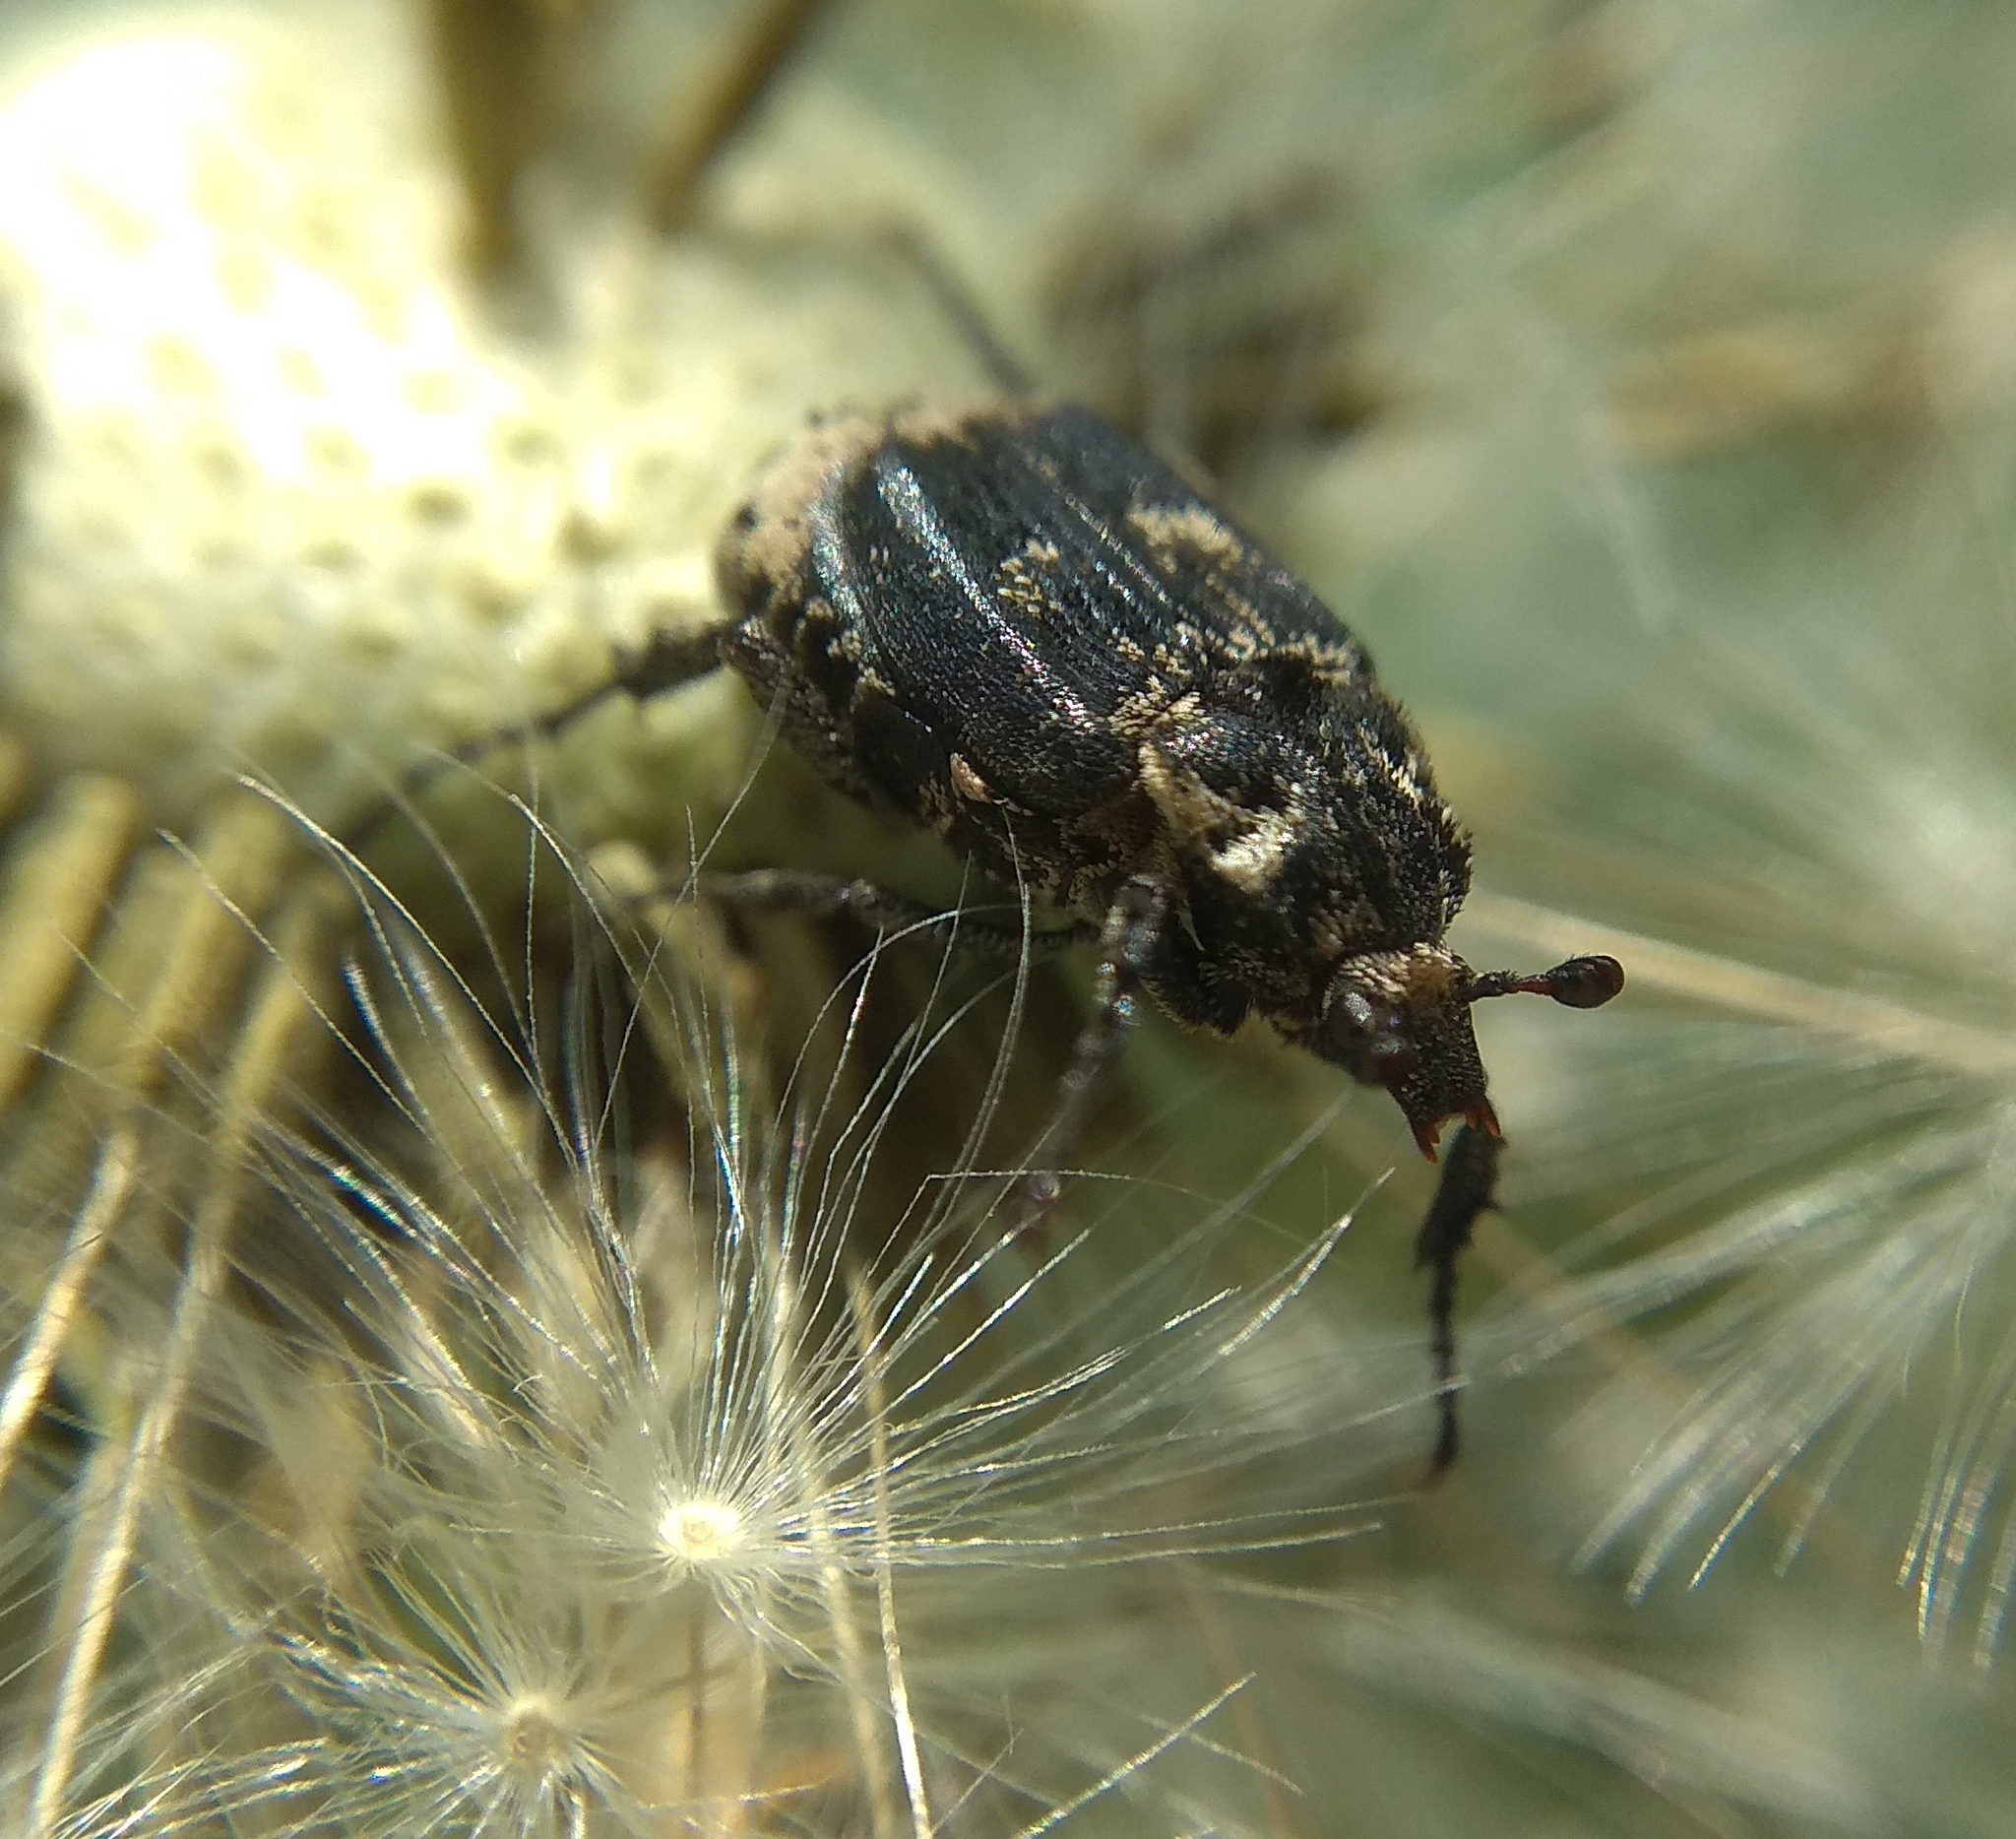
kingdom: Animalia
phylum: Arthropoda
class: Insecta
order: Coleoptera
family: Scarabaeidae
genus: Valgus
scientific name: Valgus hemipterus
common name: Bug flower chafer
